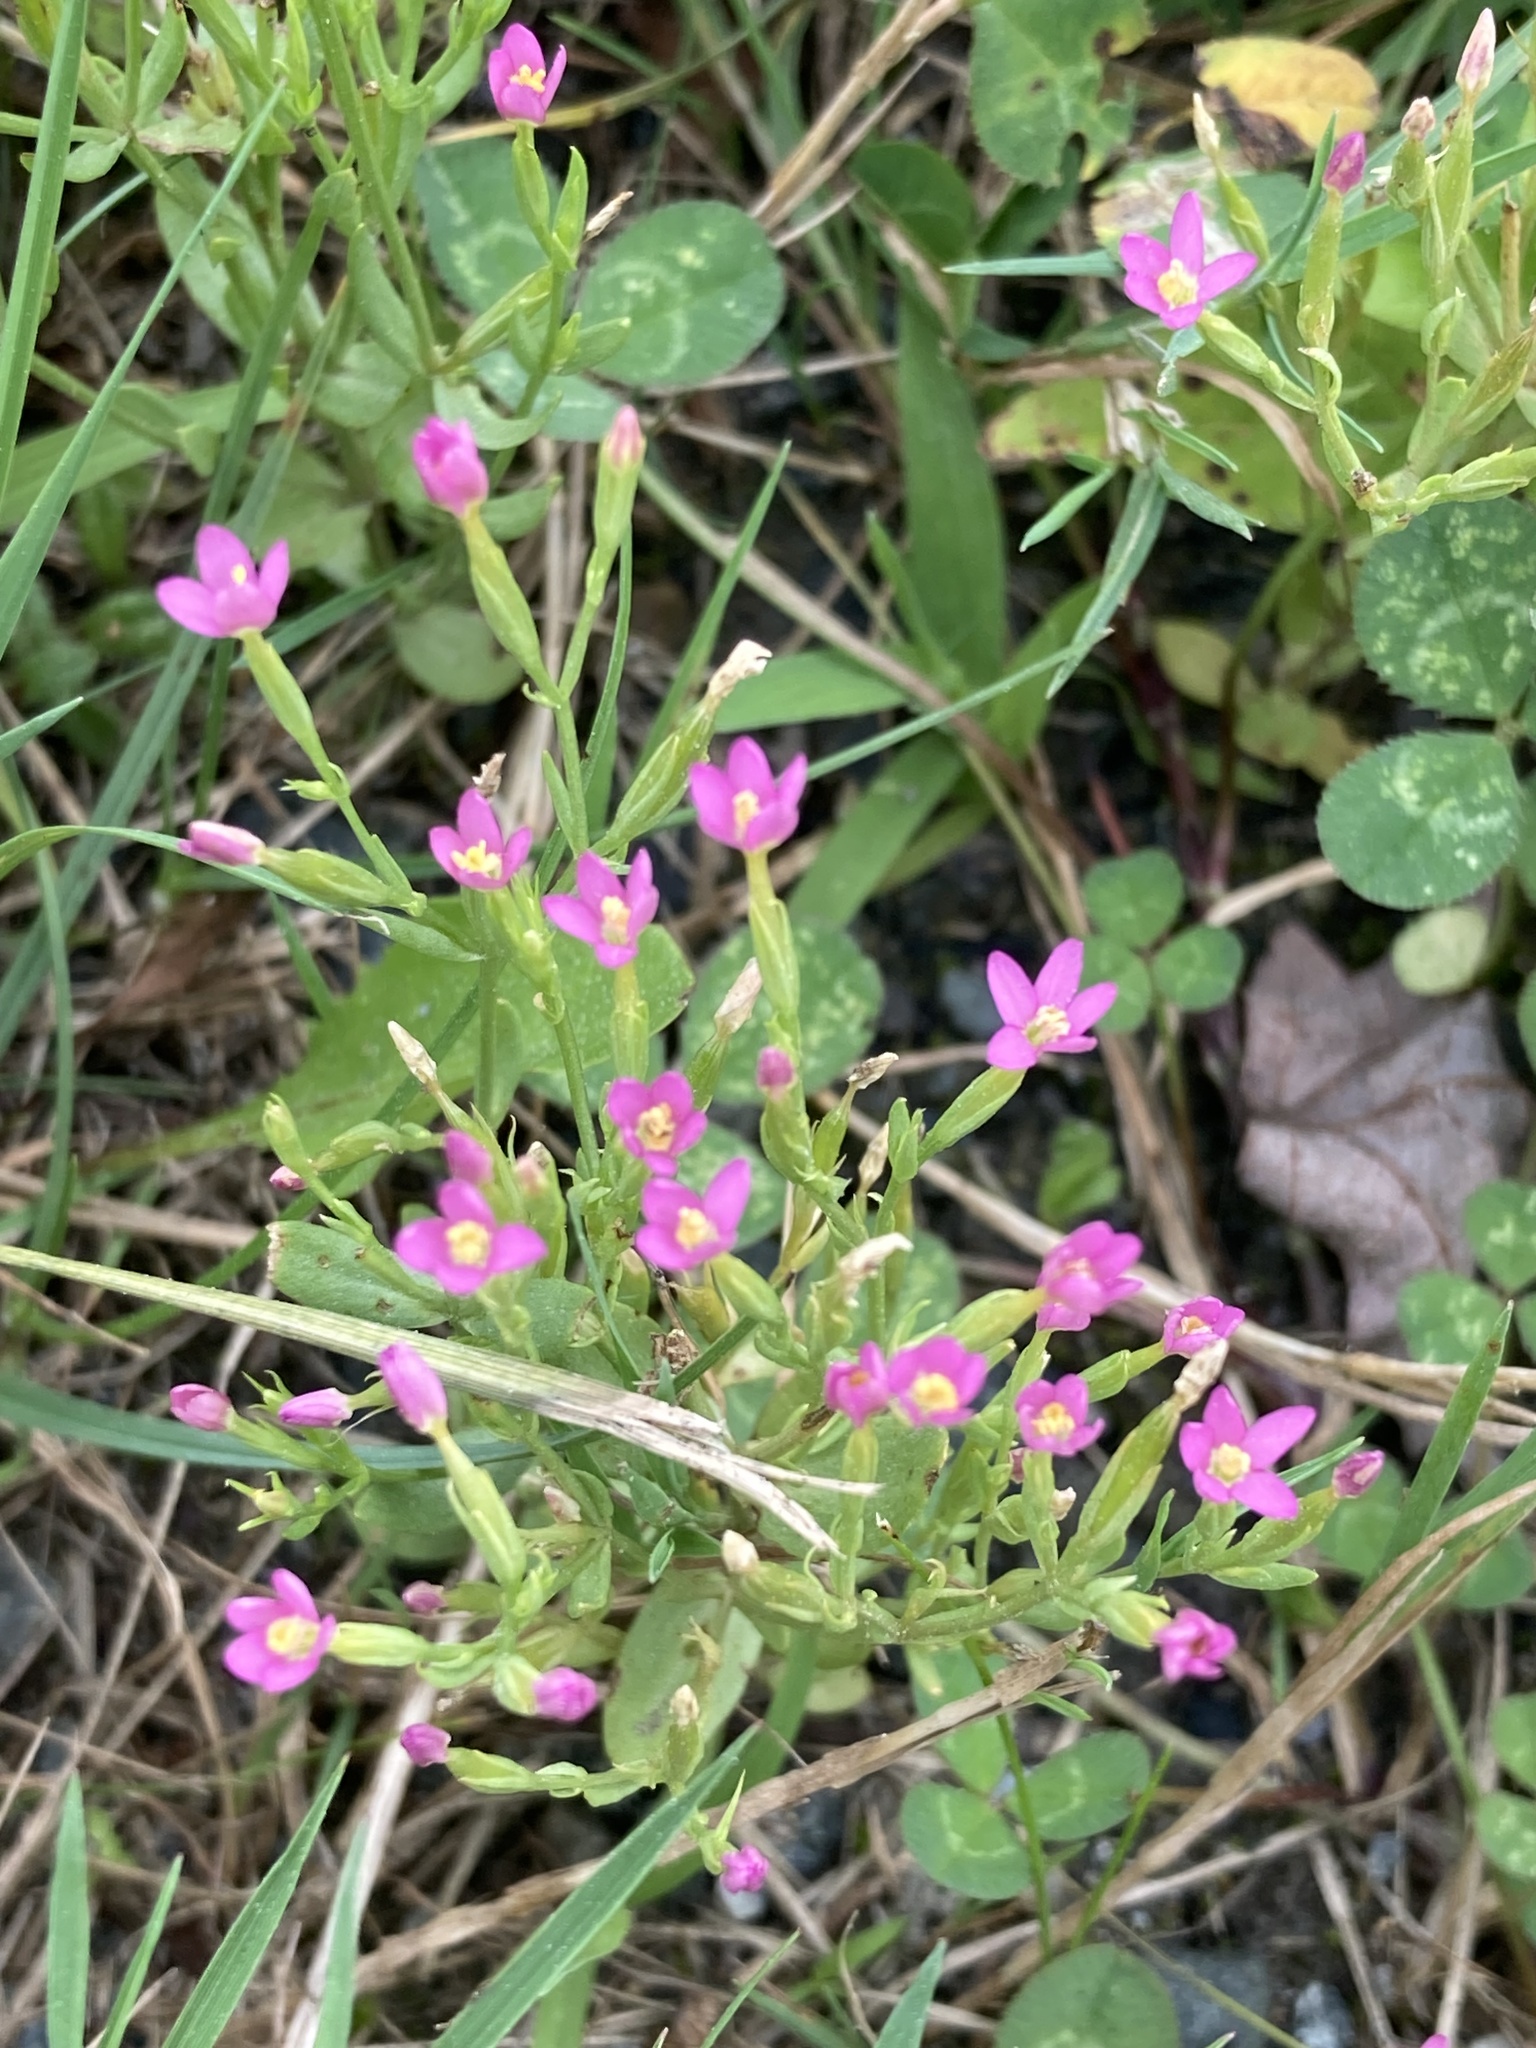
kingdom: Plantae
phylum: Tracheophyta
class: Magnoliopsida
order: Gentianales
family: Gentianaceae
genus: Centaurium
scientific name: Centaurium pulchellum
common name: Lesser centaury
